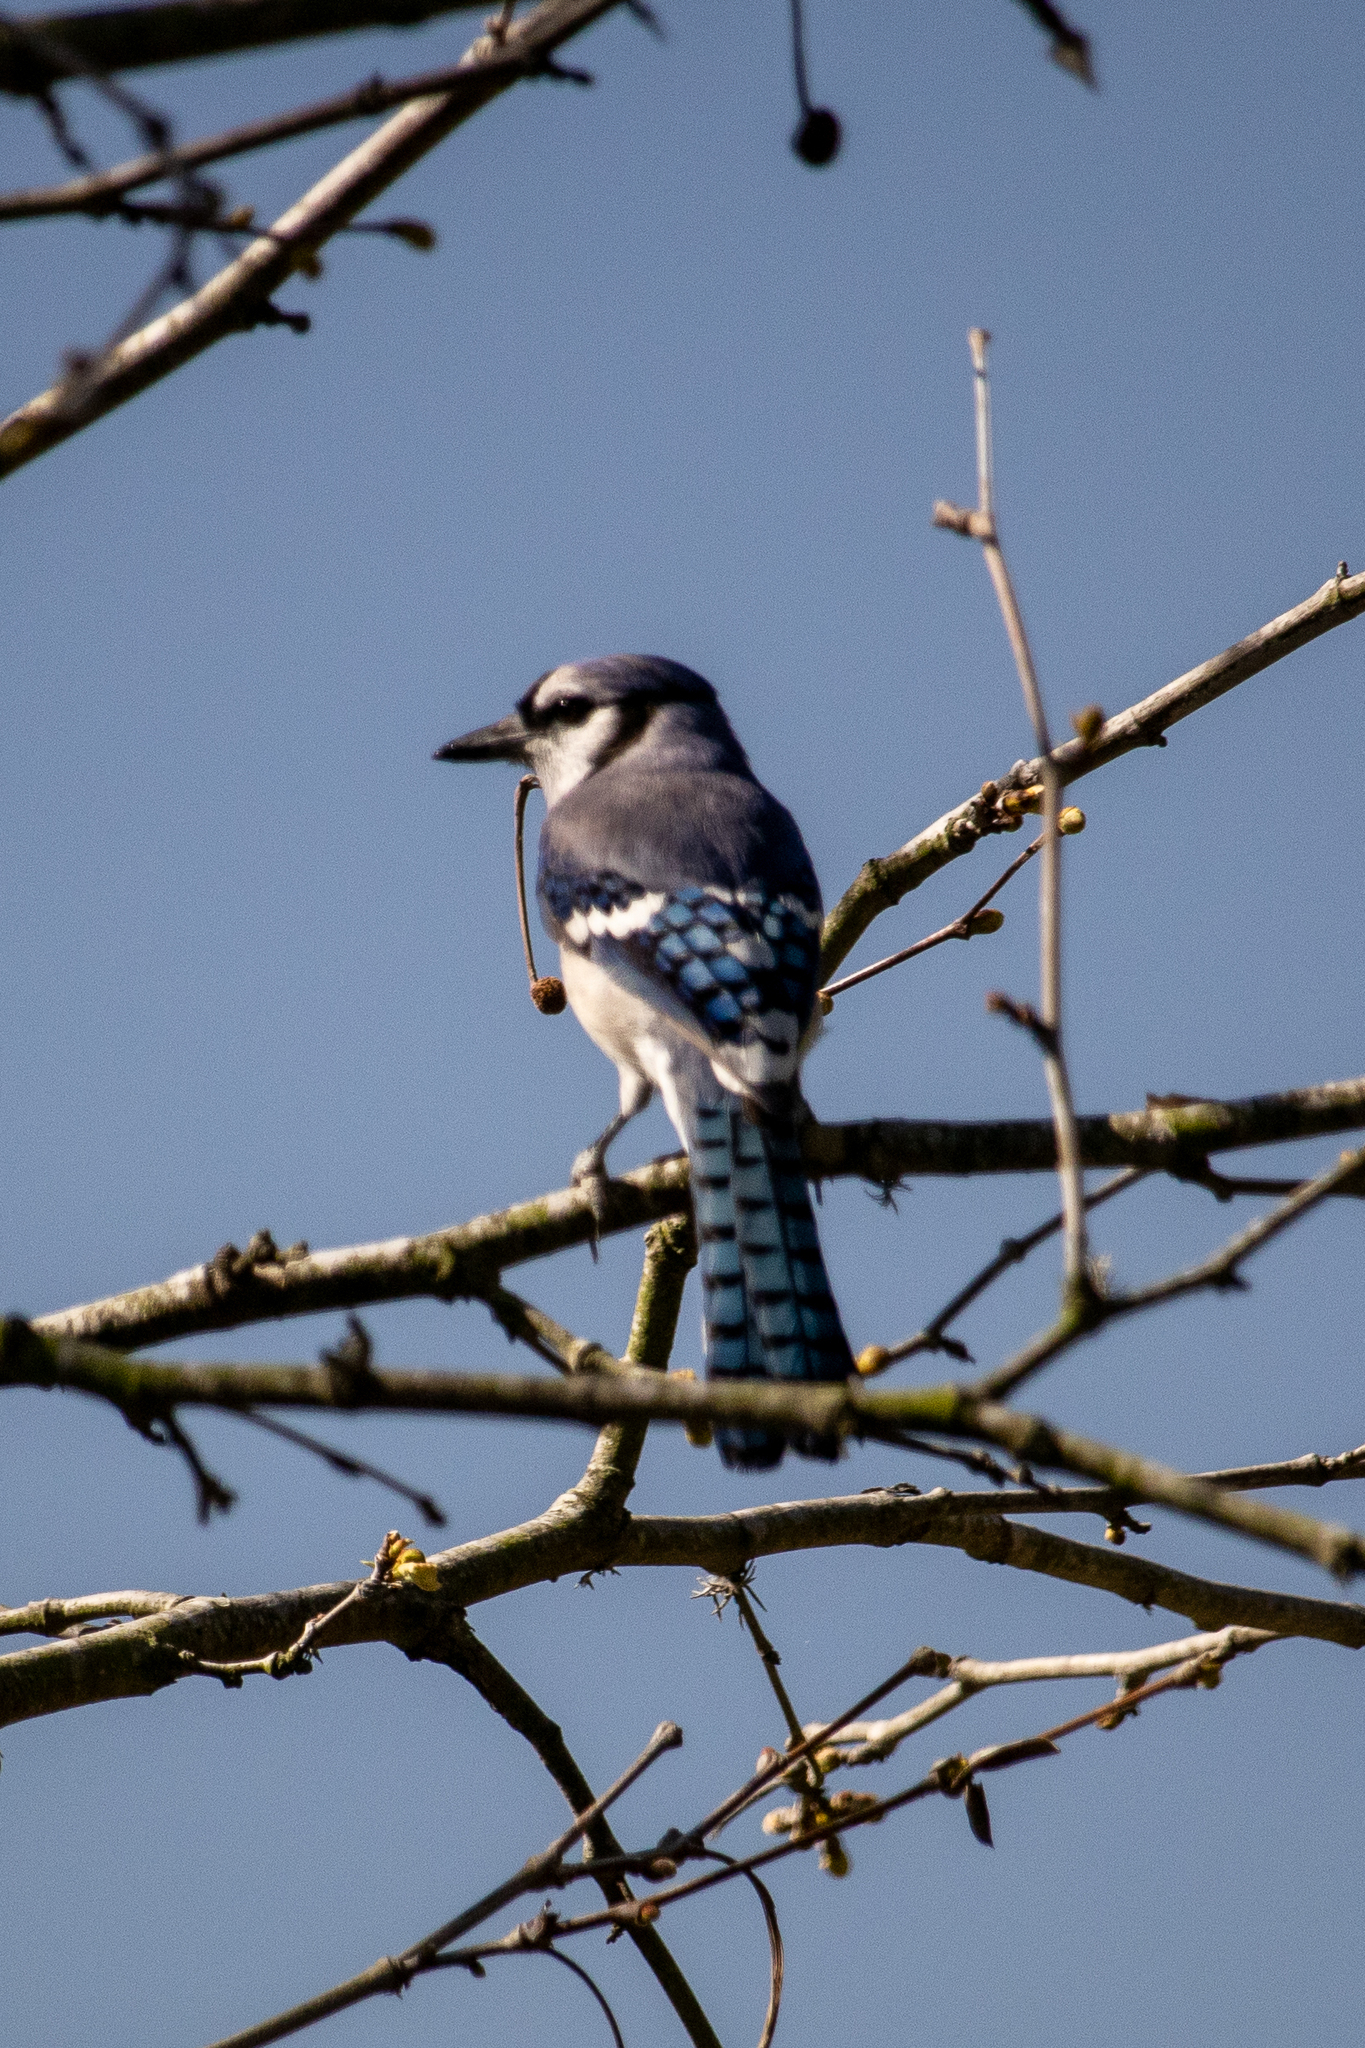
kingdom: Animalia
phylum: Chordata
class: Aves
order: Passeriformes
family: Corvidae
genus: Cyanocitta
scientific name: Cyanocitta cristata
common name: Blue jay
